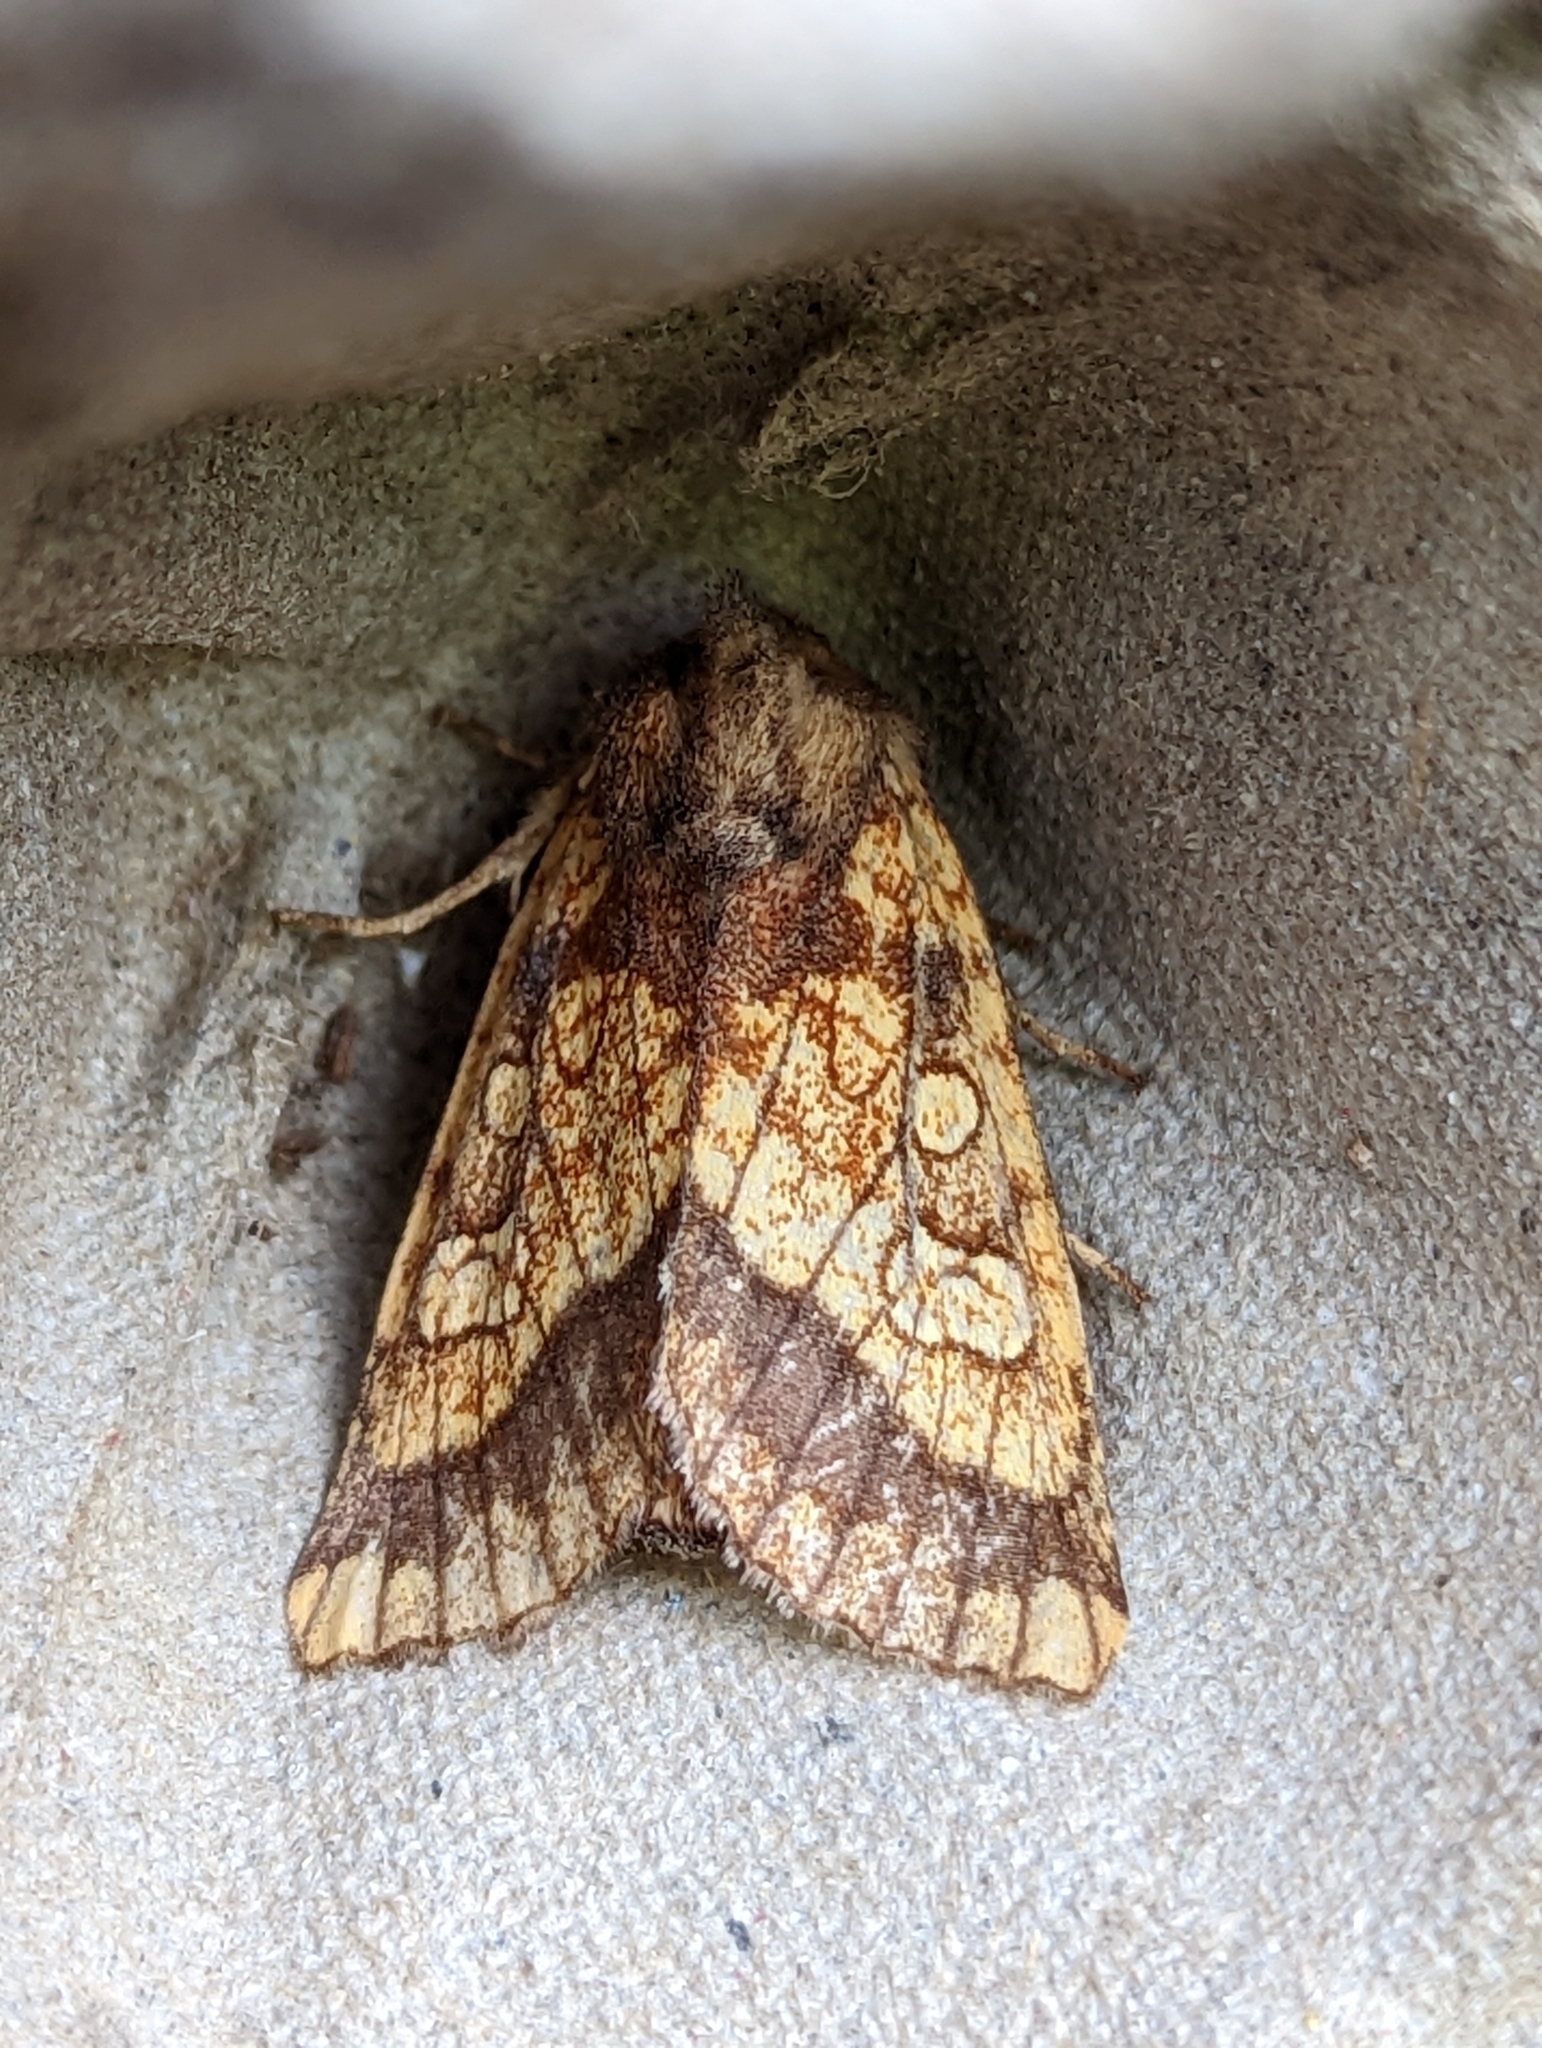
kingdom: Animalia
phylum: Arthropoda
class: Insecta
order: Lepidoptera
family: Noctuidae
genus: Gortyna
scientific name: Gortyna flavago
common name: Frosted orange
